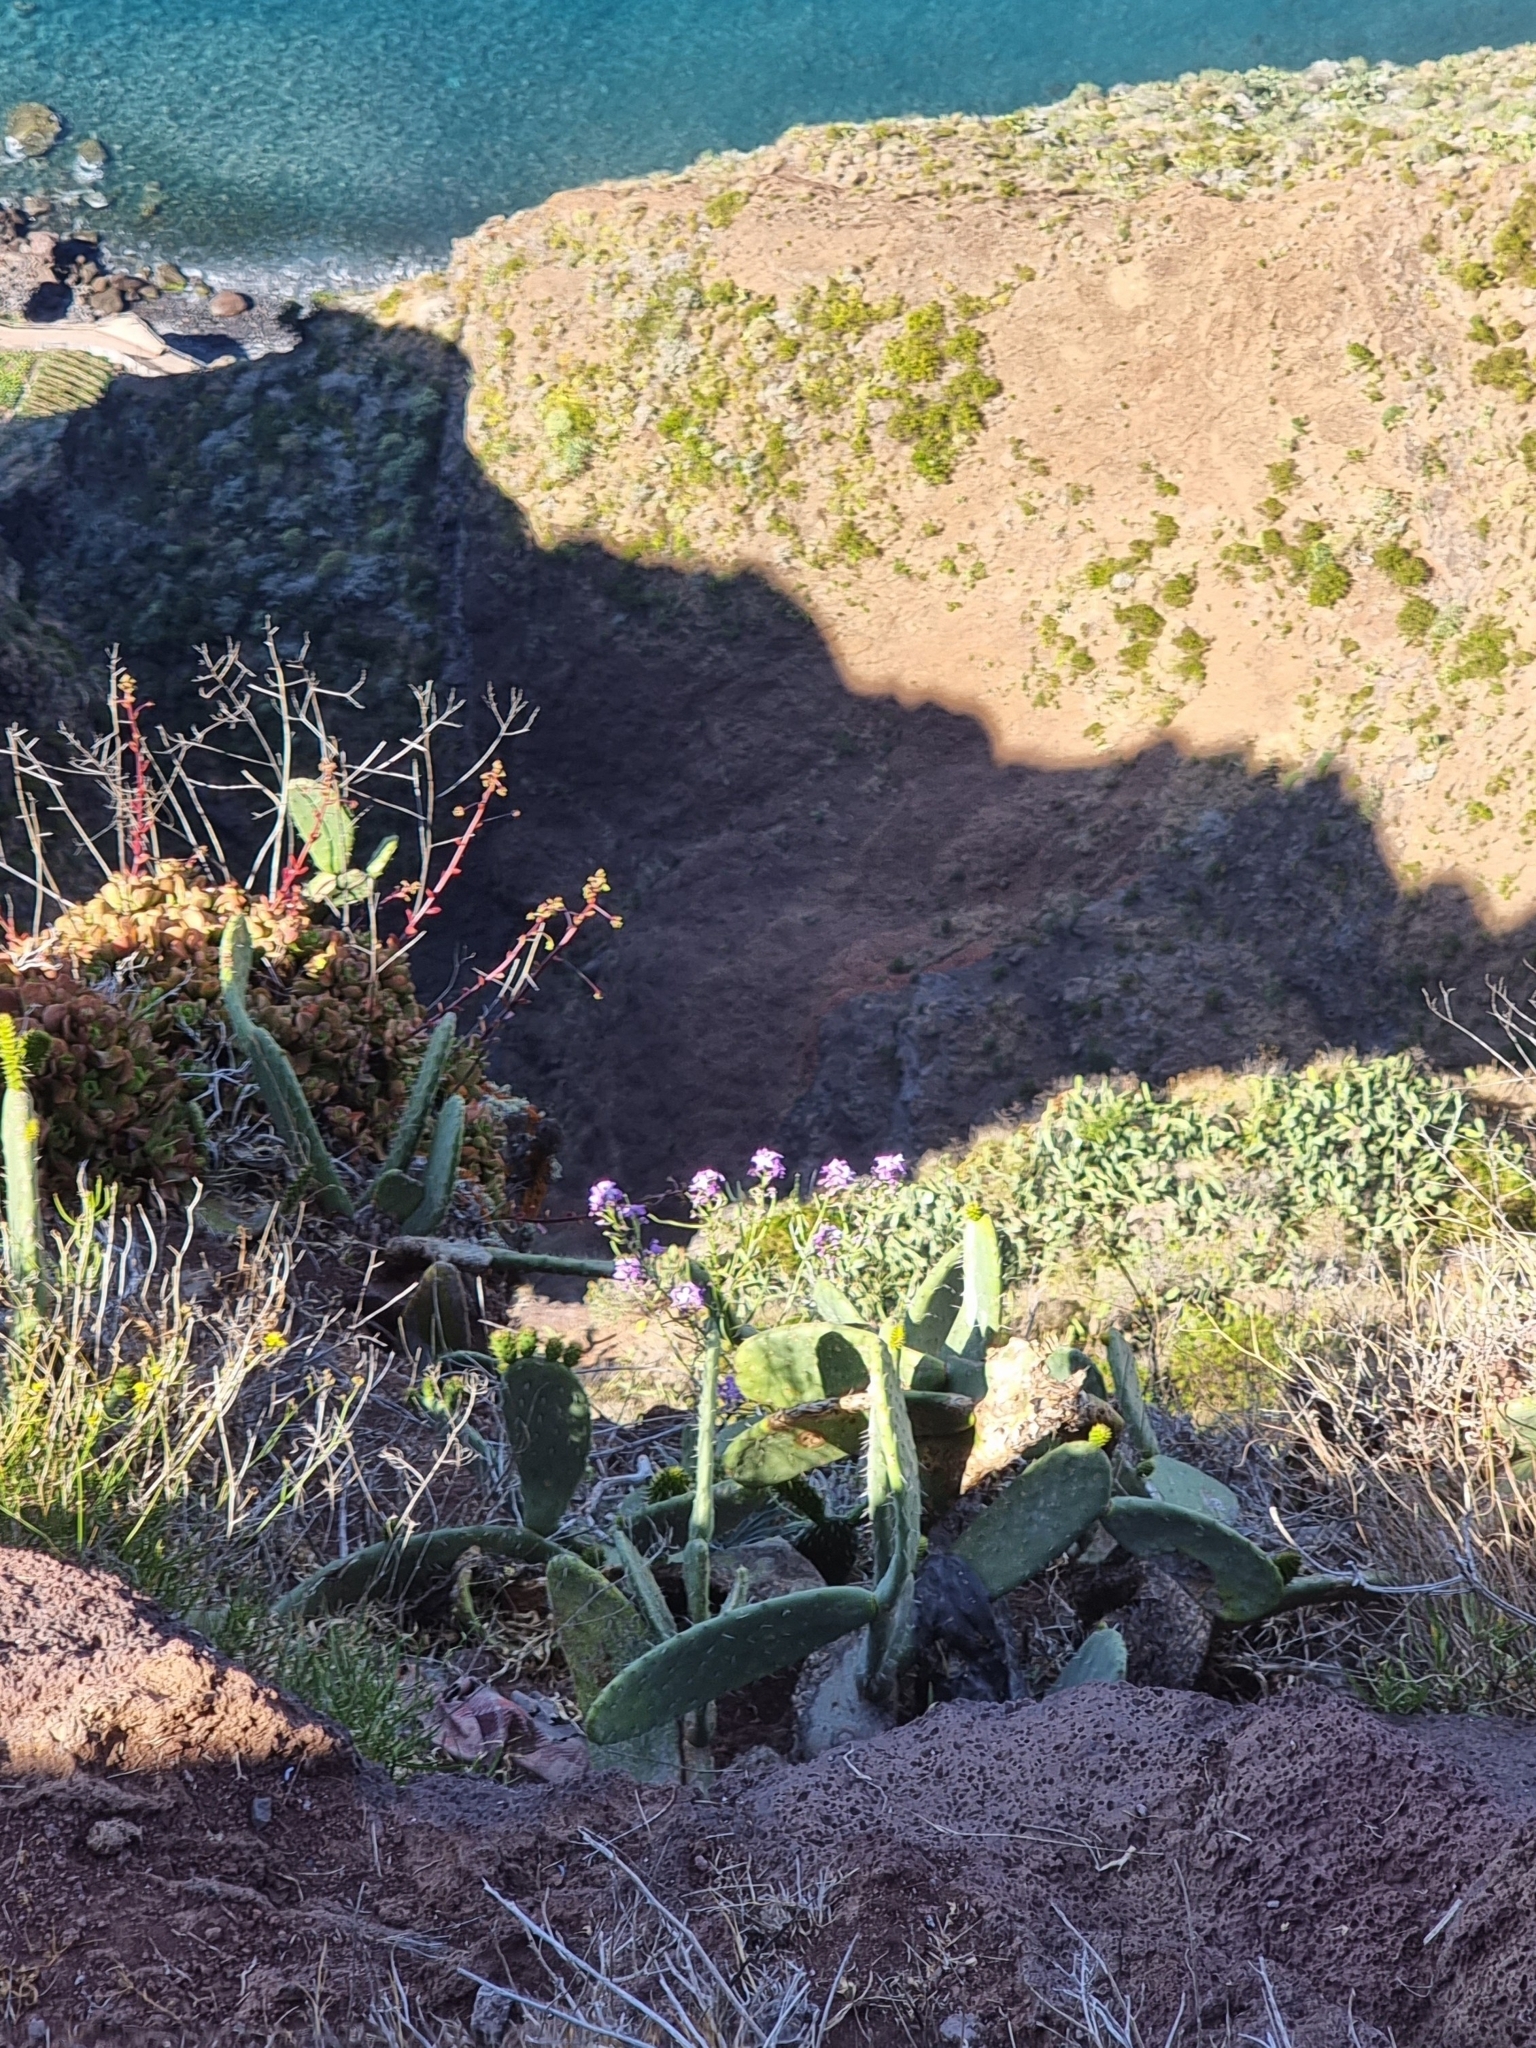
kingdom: Plantae
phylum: Tracheophyta
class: Magnoliopsida
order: Brassicales
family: Brassicaceae
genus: Matthiola
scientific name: Matthiola maderensis
